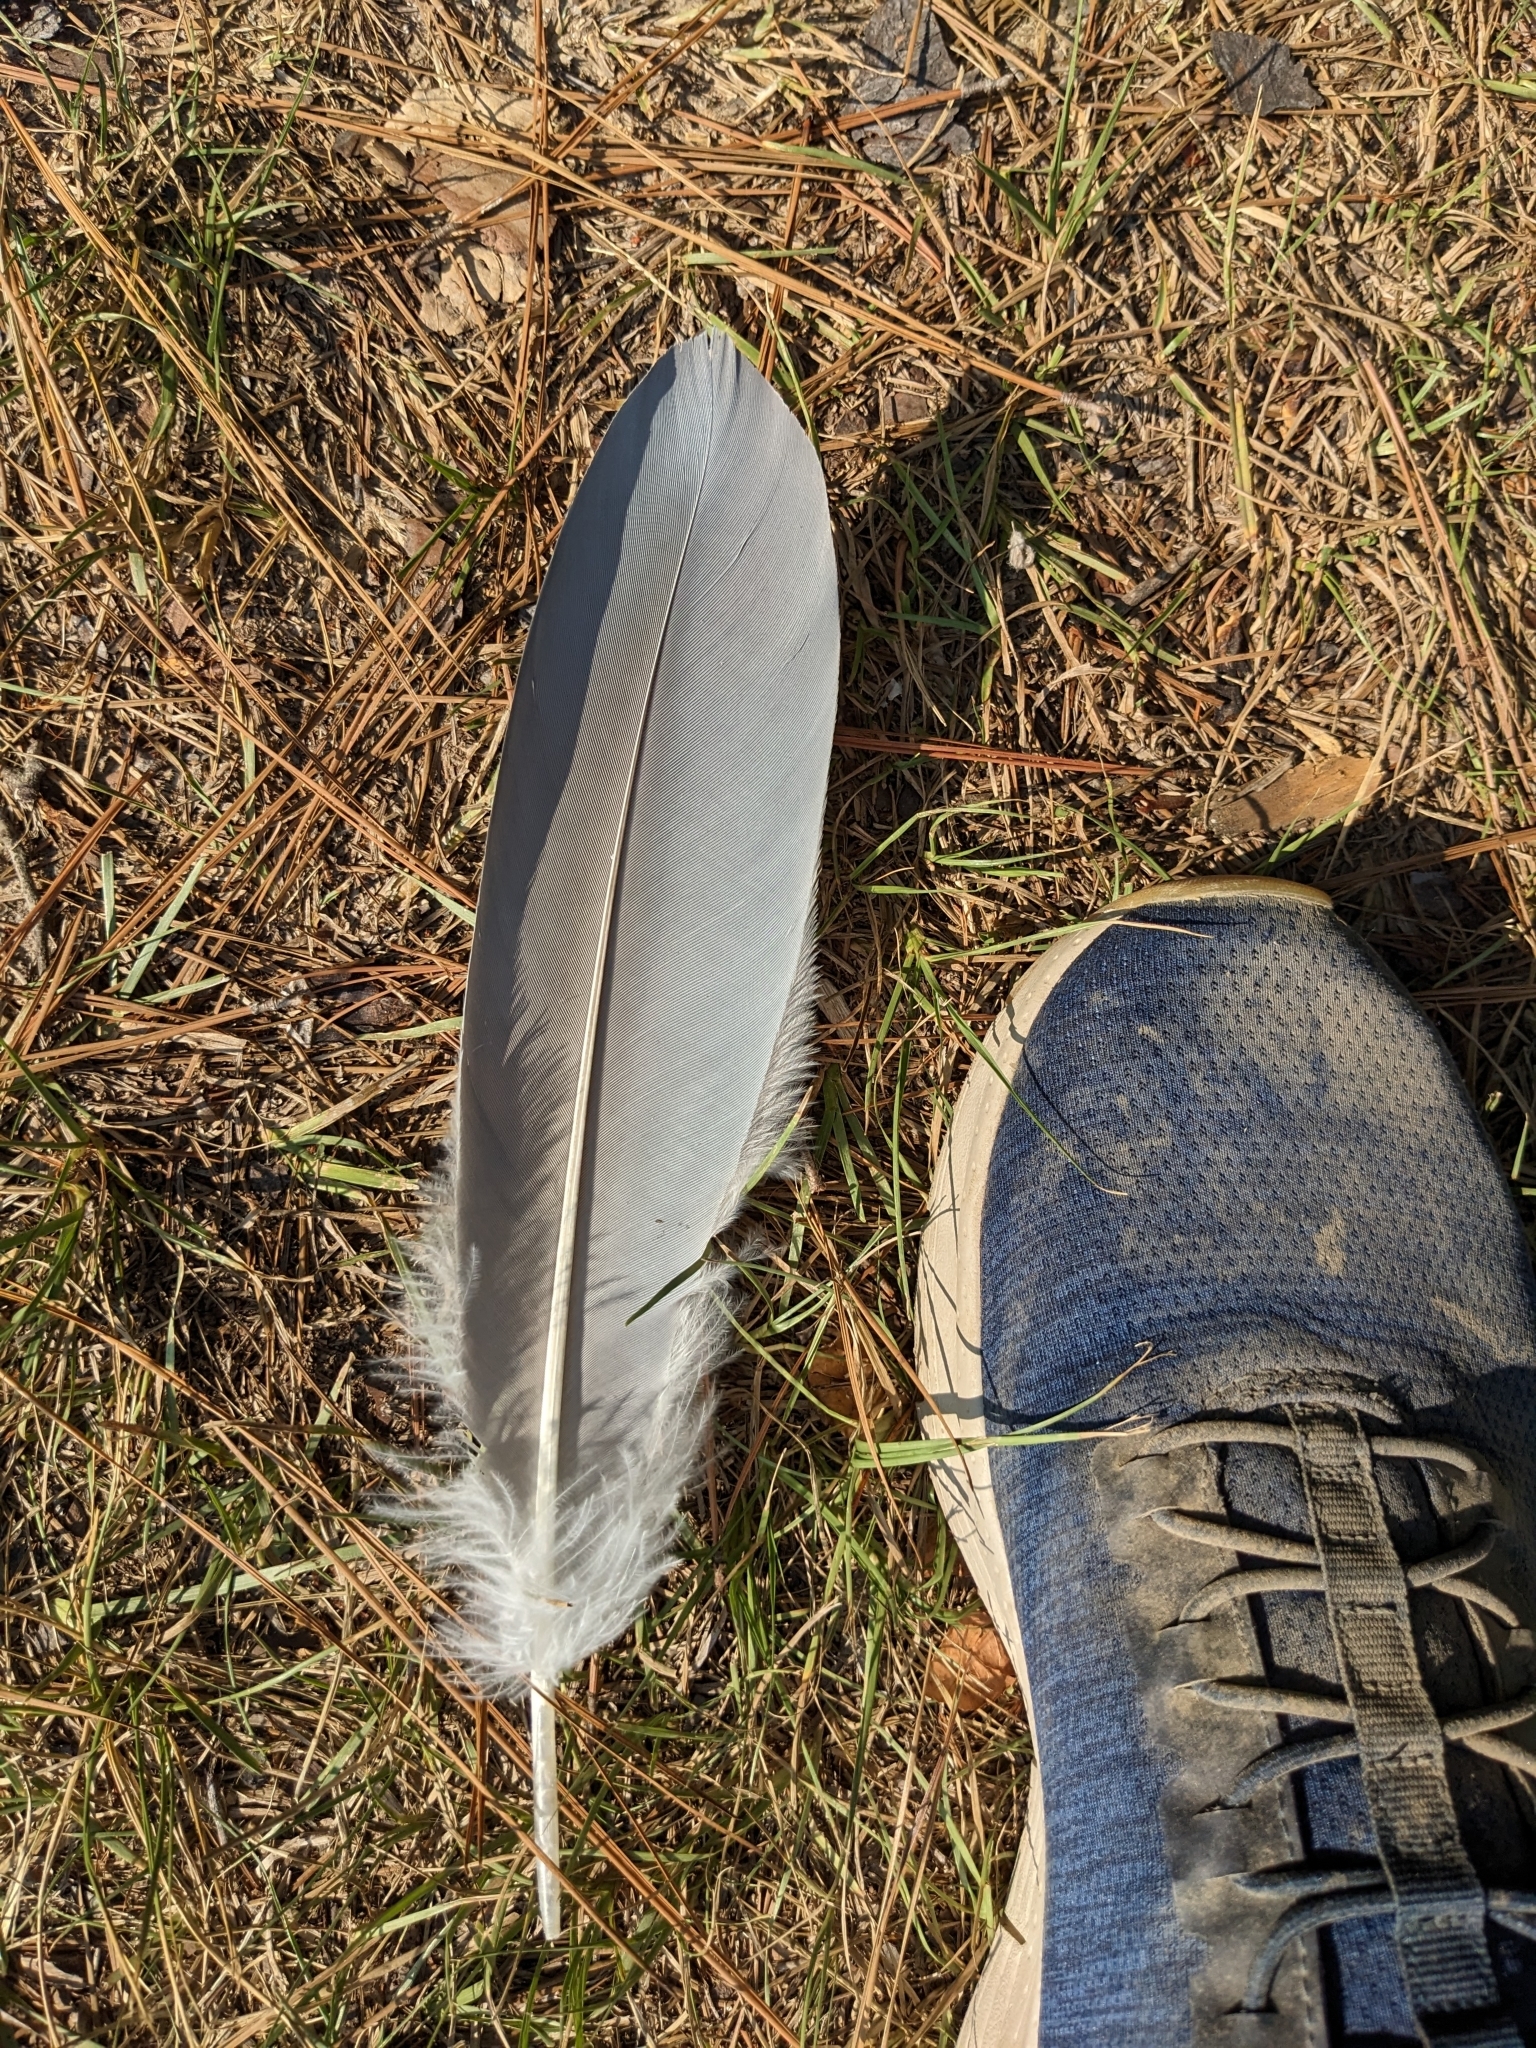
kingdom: Animalia
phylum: Chordata
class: Aves
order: Pelecaniformes
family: Ardeidae
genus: Ardea
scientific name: Ardea herodias
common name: Great blue heron
